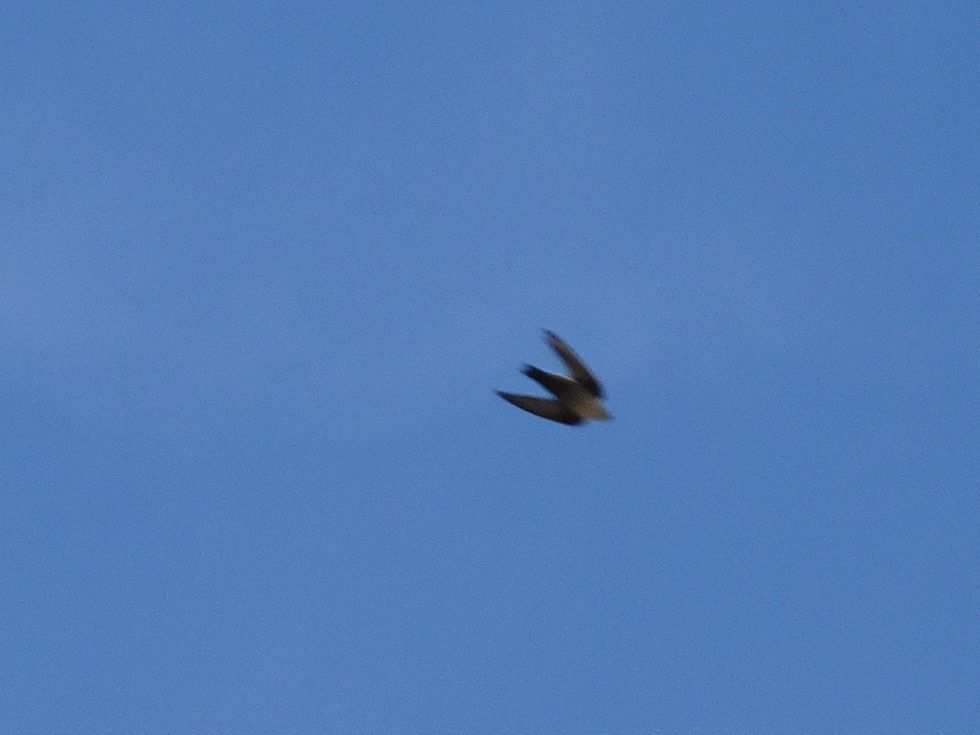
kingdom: Animalia
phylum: Chordata
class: Aves
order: Passeriformes
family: Hirundinidae
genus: Ptyonoprogne
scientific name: Ptyonoprogne rupestris
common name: Eurasian crag martin
